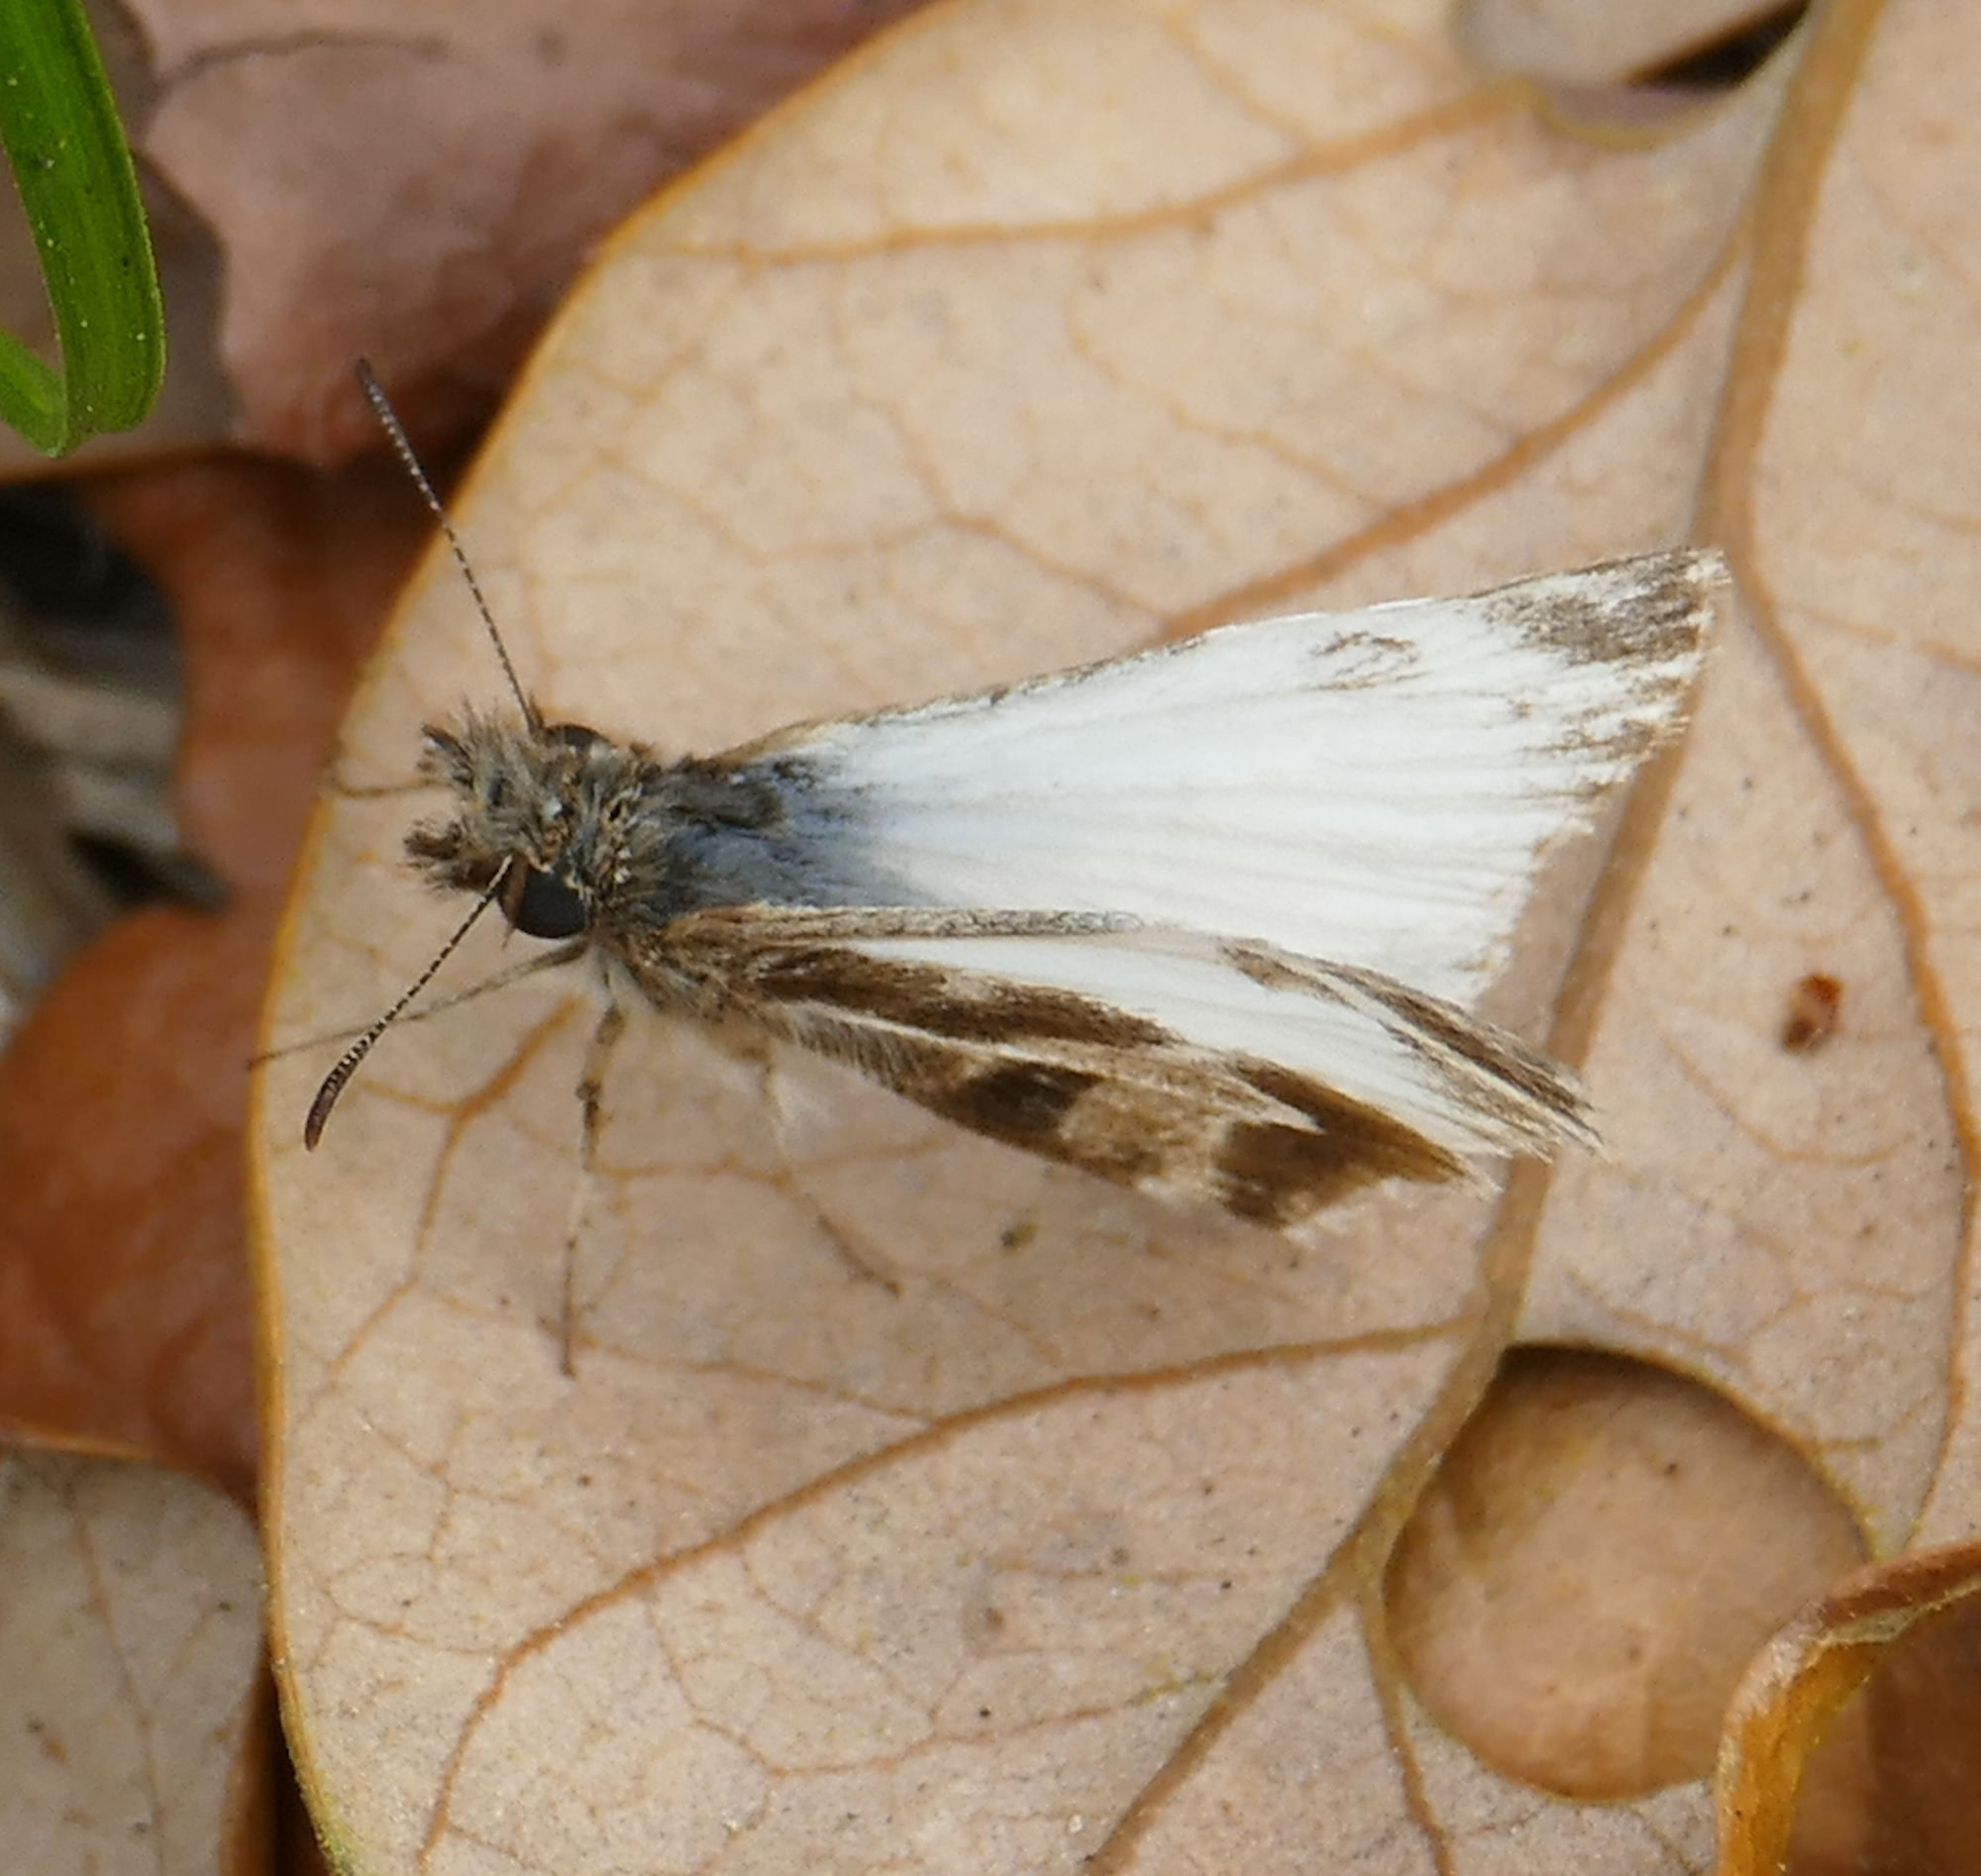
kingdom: Animalia
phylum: Arthropoda
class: Insecta
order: Lepidoptera
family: Hesperiidae
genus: Heliopetes
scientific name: Heliopetes macaira
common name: Turk's-cap white-skipper
